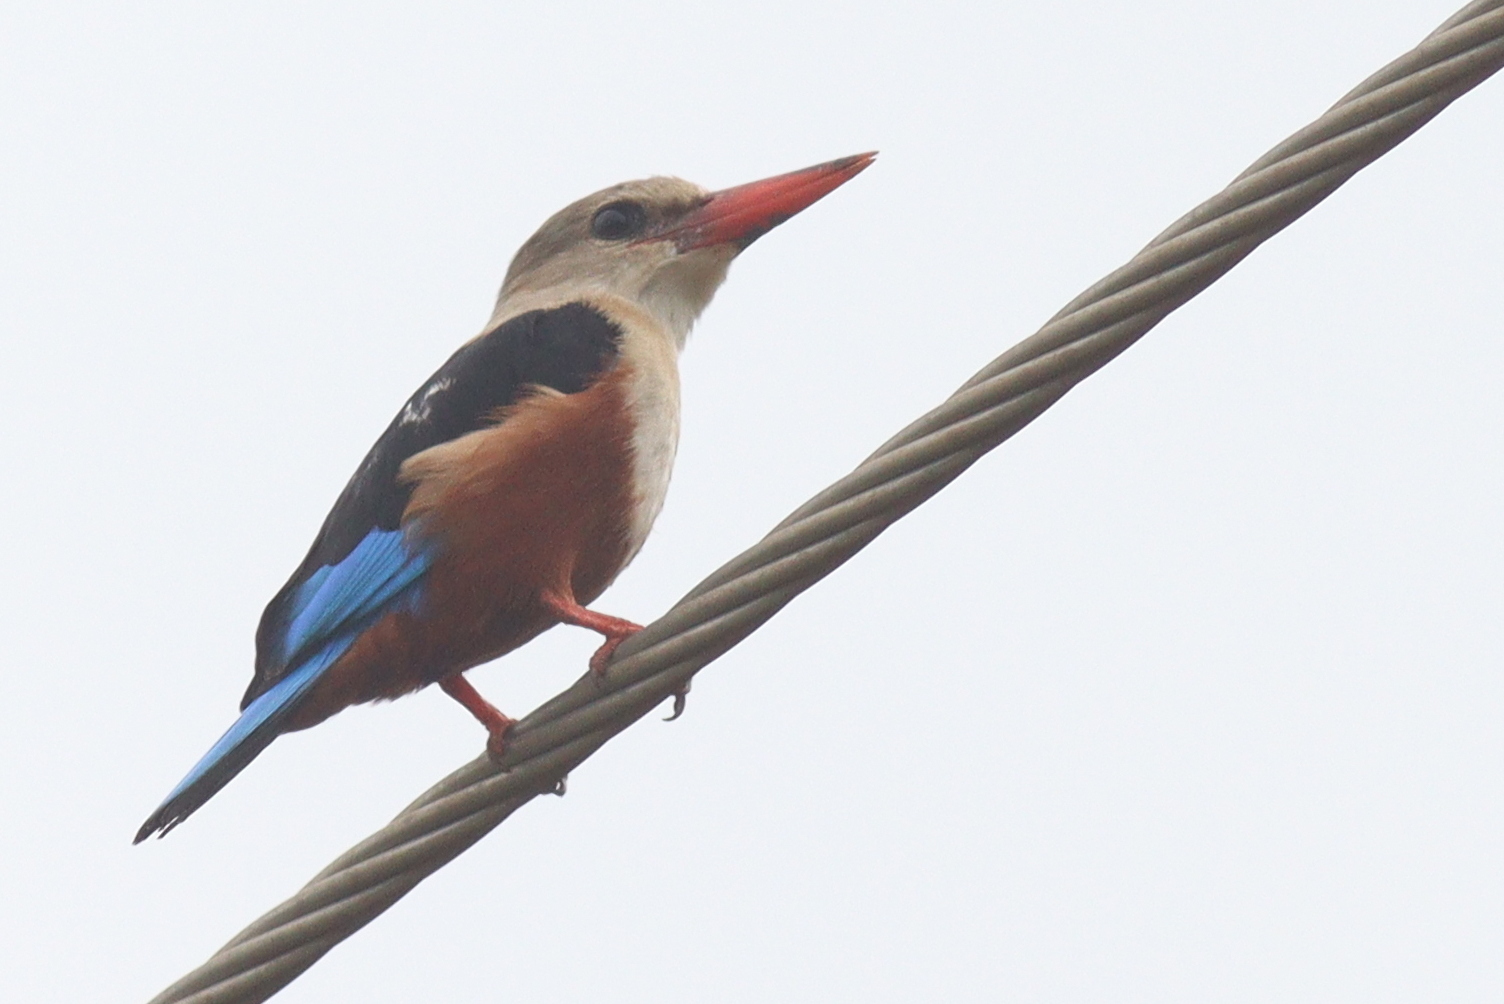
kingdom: Animalia
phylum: Chordata
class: Aves
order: Coraciiformes
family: Alcedinidae
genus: Halcyon
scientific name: Halcyon leucocephala
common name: Grey-headed kingfisher
